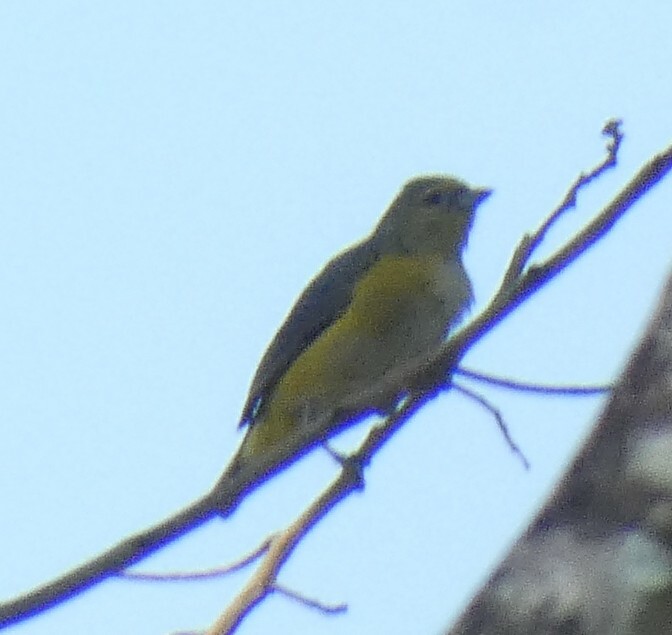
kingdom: Animalia
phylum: Chordata
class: Aves
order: Passeriformes
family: Fringillidae
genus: Euphonia
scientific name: Euphonia chlorotica
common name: Purple-throated euphonia
